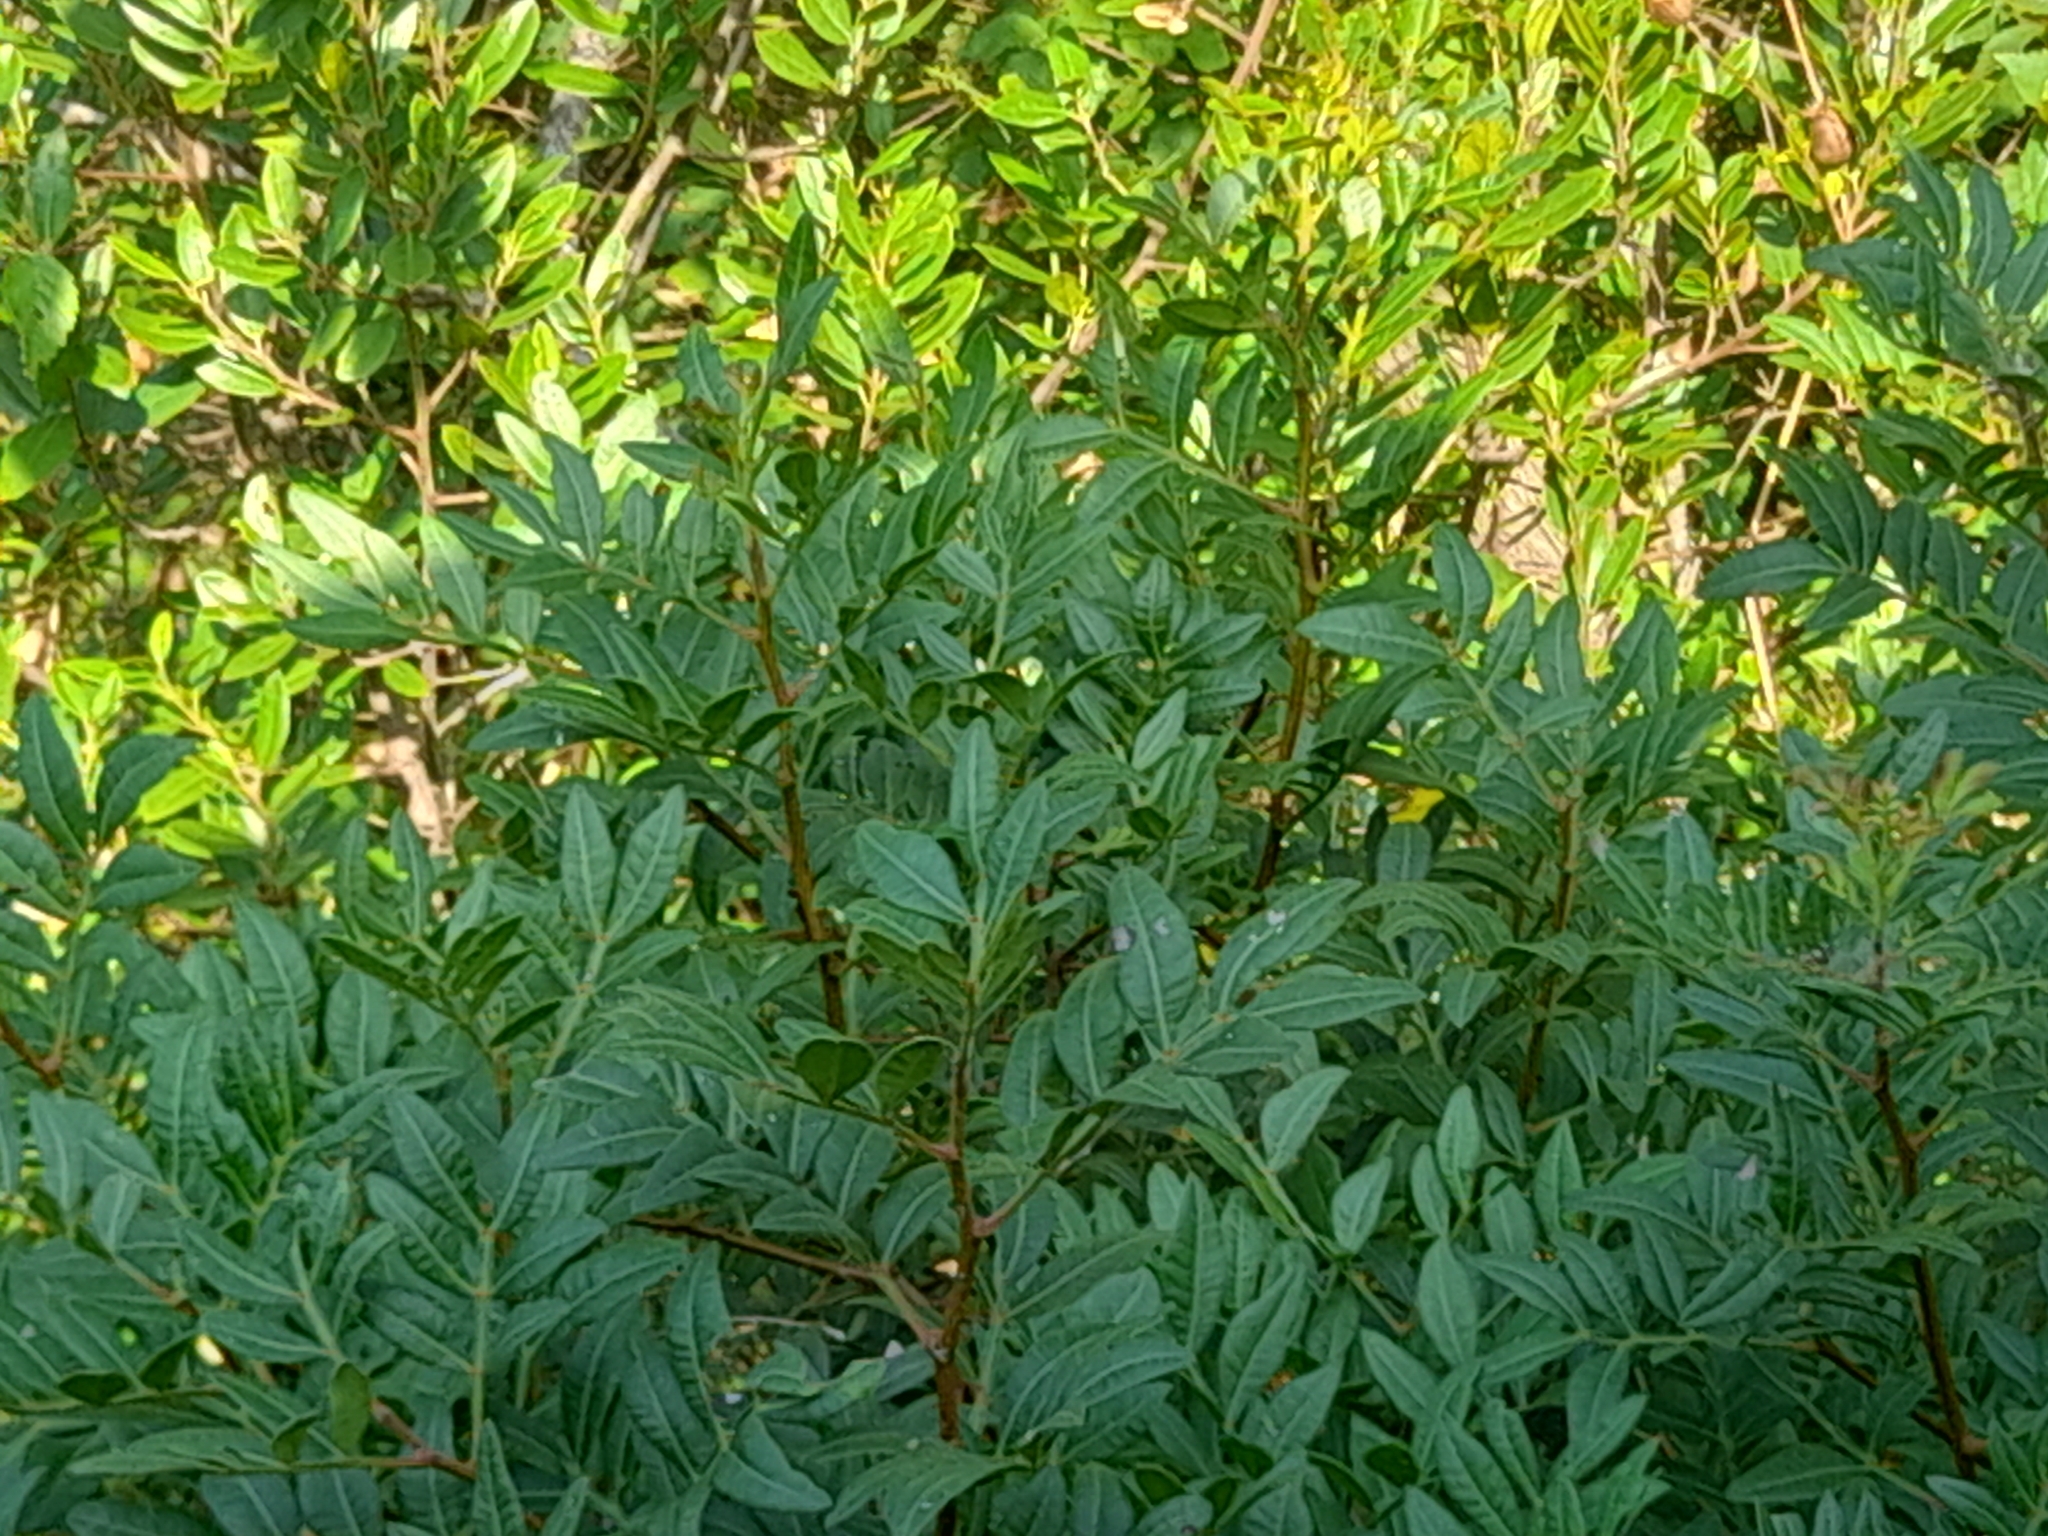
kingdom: Plantae
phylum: Tracheophyta
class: Magnoliopsida
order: Sapindales
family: Anacardiaceae
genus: Pistacia
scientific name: Pistacia lentiscus
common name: Lentisk
